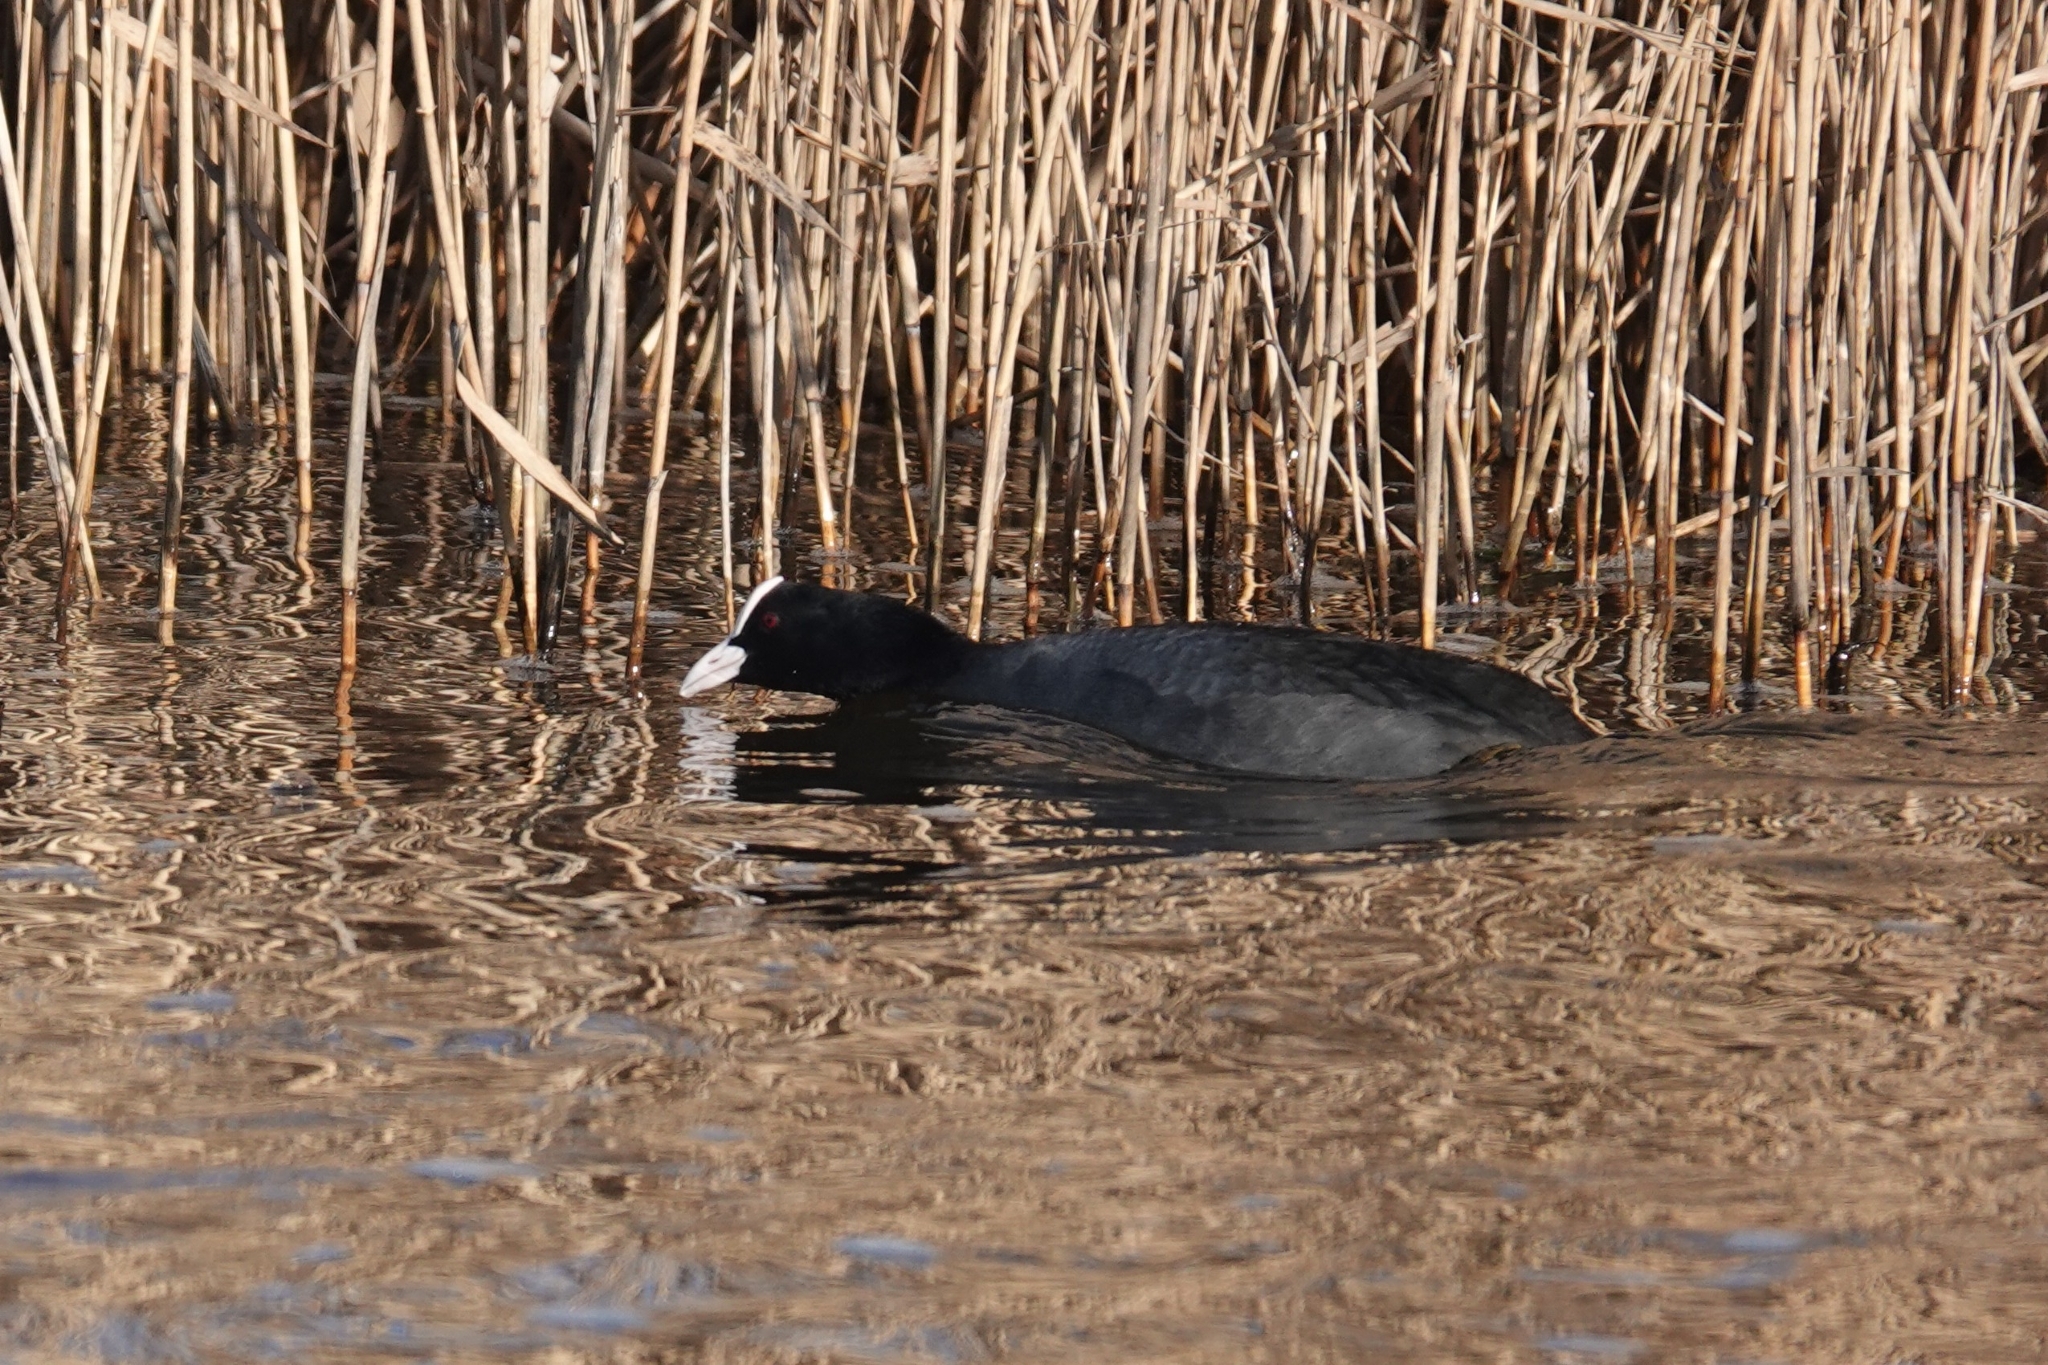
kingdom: Animalia
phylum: Chordata
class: Aves
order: Gruiformes
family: Rallidae
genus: Fulica
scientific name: Fulica atra
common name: Eurasian coot
